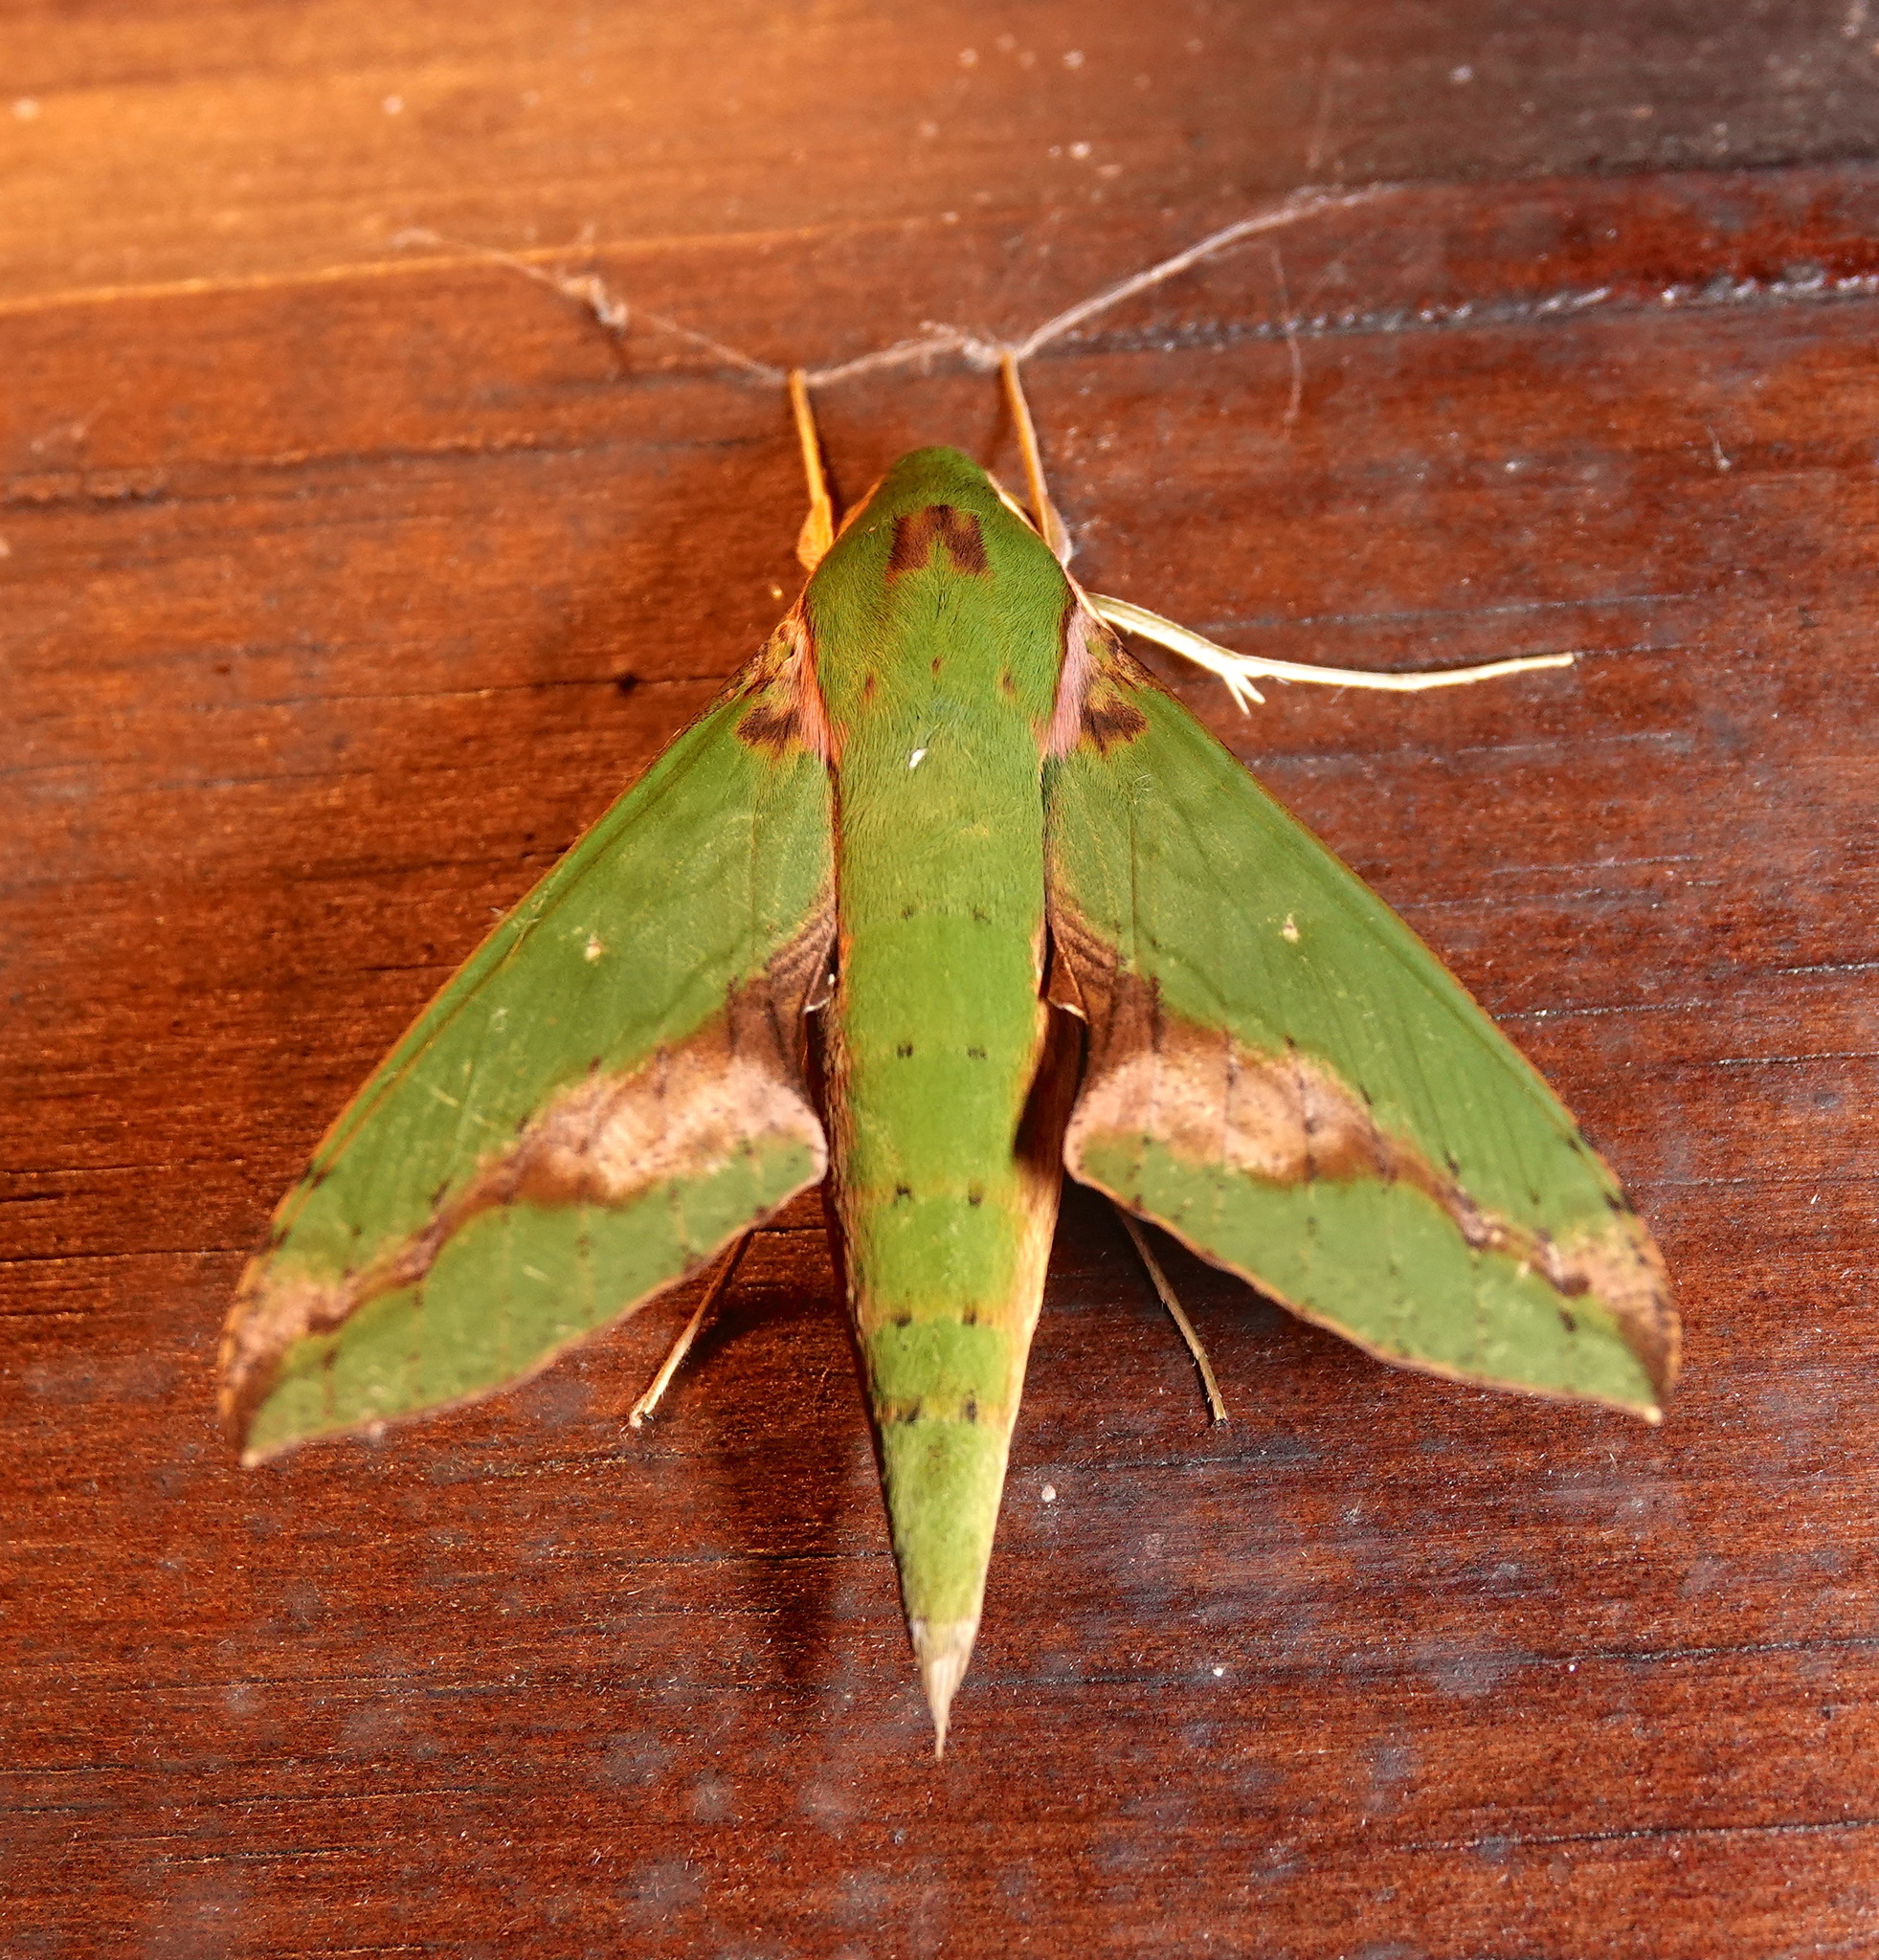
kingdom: Animalia
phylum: Arthropoda
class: Insecta
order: Lepidoptera
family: Sphingidae
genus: Xylophanes
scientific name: Xylophanes chiron
